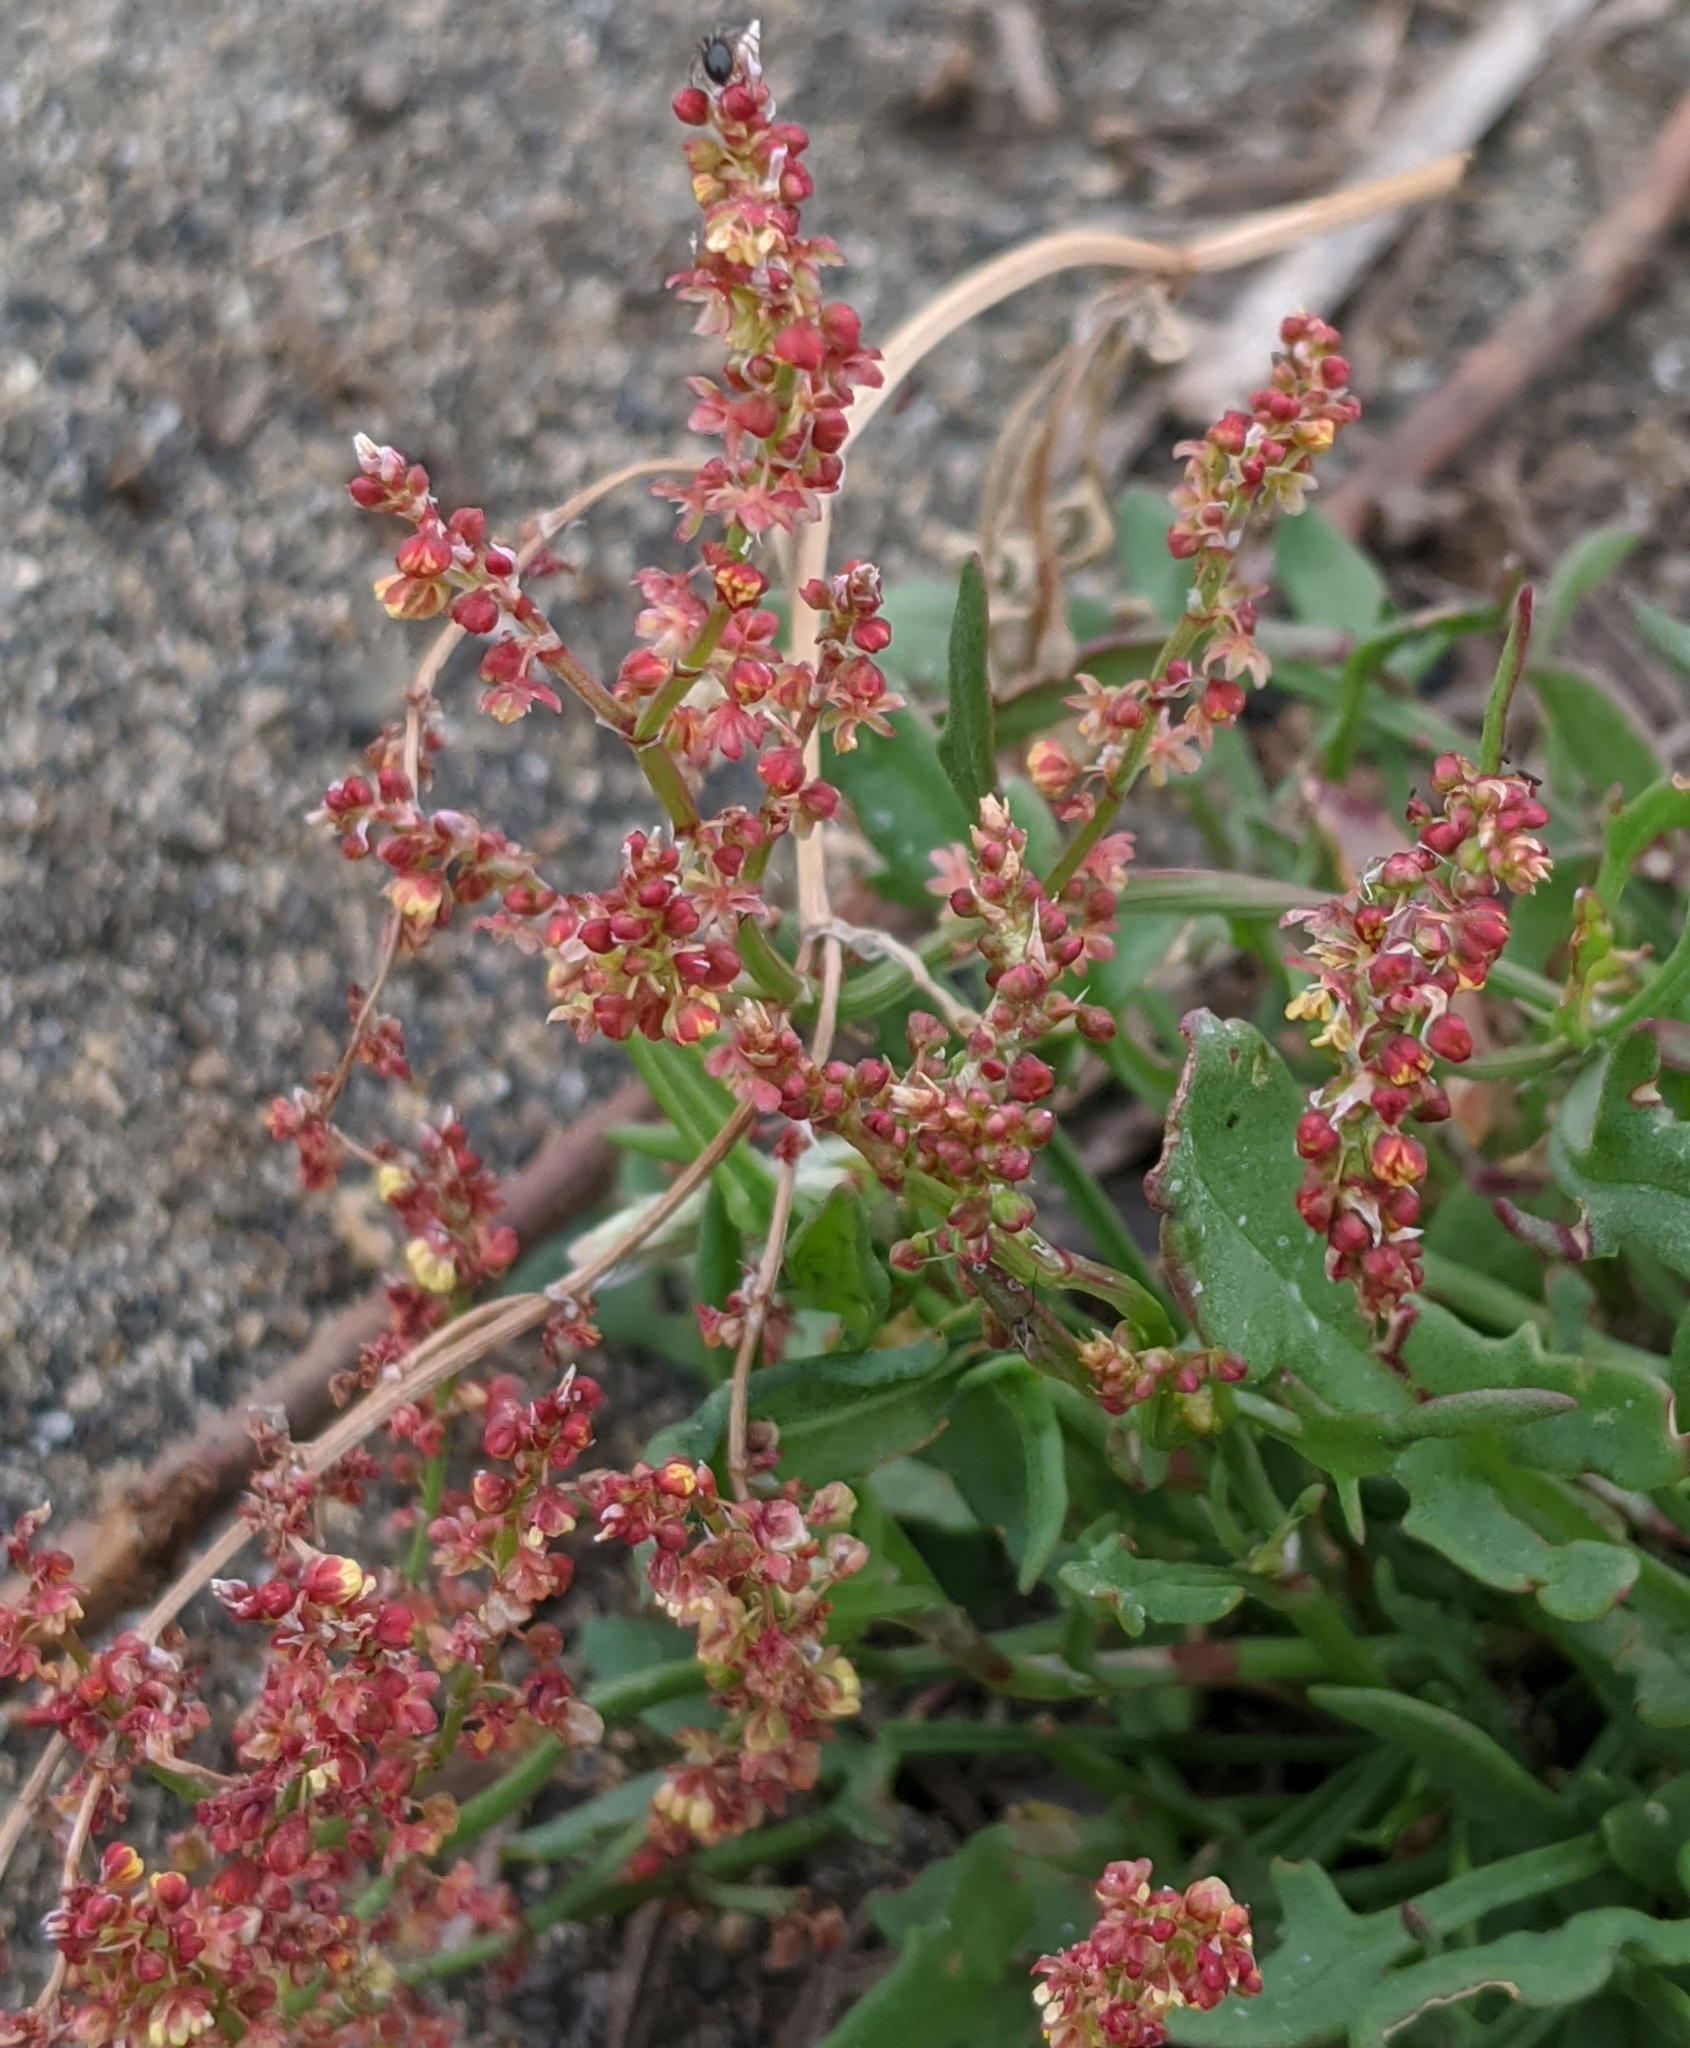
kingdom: Plantae
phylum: Tracheophyta
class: Magnoliopsida
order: Caryophyllales
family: Polygonaceae
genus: Rumex
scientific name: Rumex acetosella
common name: Common sheep sorrel
